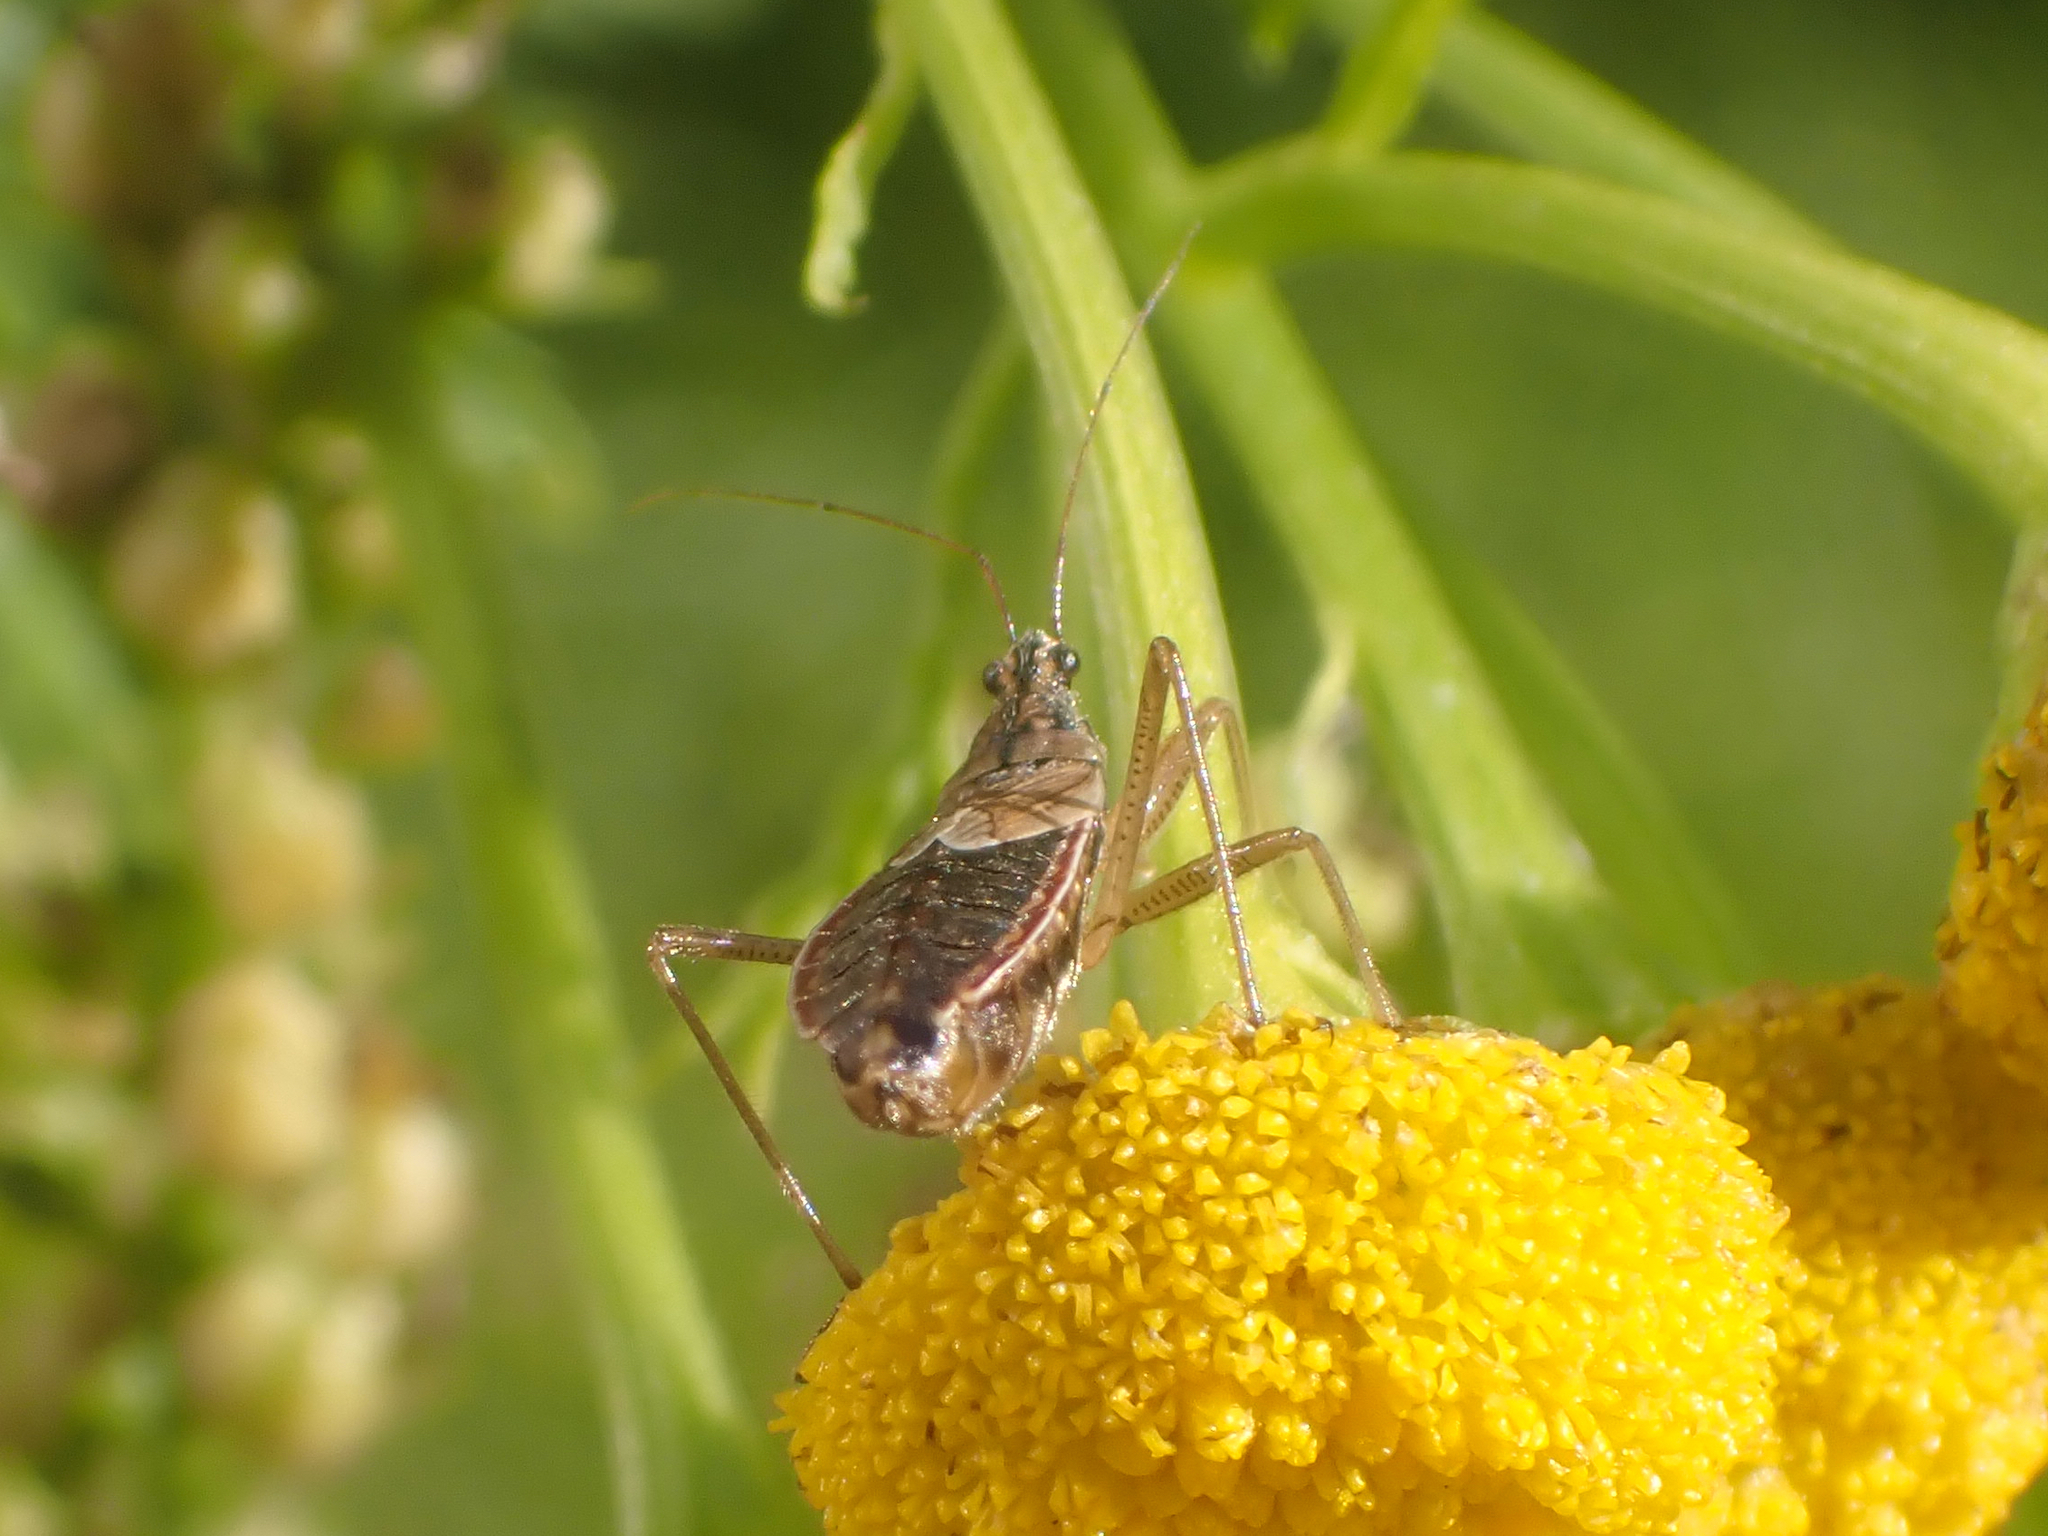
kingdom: Animalia
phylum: Arthropoda
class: Insecta
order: Hemiptera
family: Nabidae
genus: Nabis
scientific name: Nabis flavomarginatus
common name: Broad damselbug
